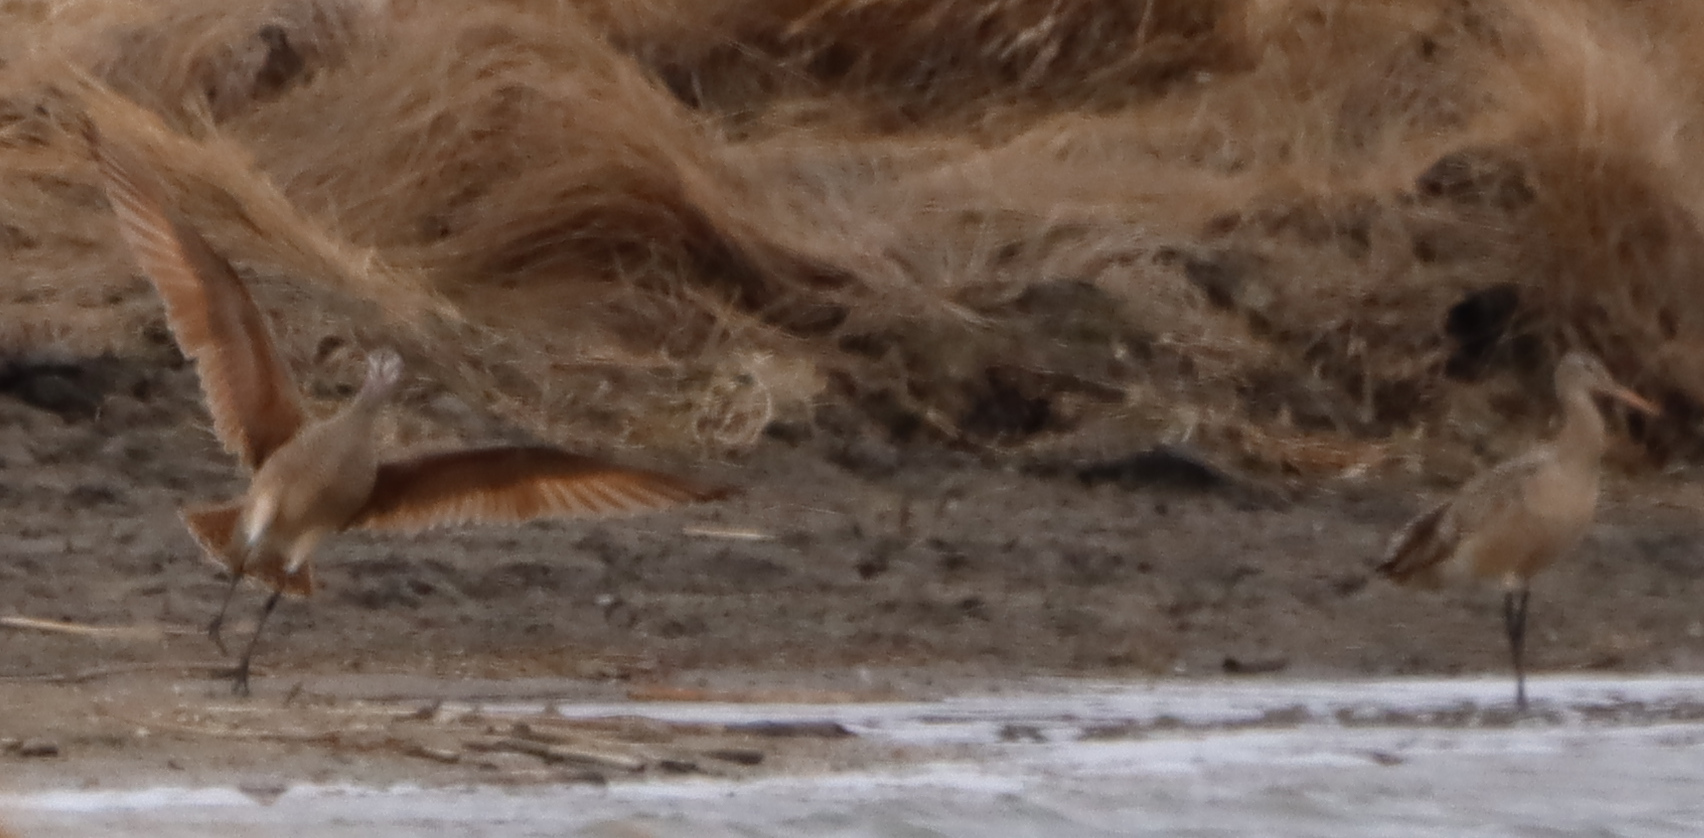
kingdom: Animalia
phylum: Chordata
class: Aves
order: Charadriiformes
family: Scolopacidae
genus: Limosa
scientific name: Limosa fedoa
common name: Marbled godwit
